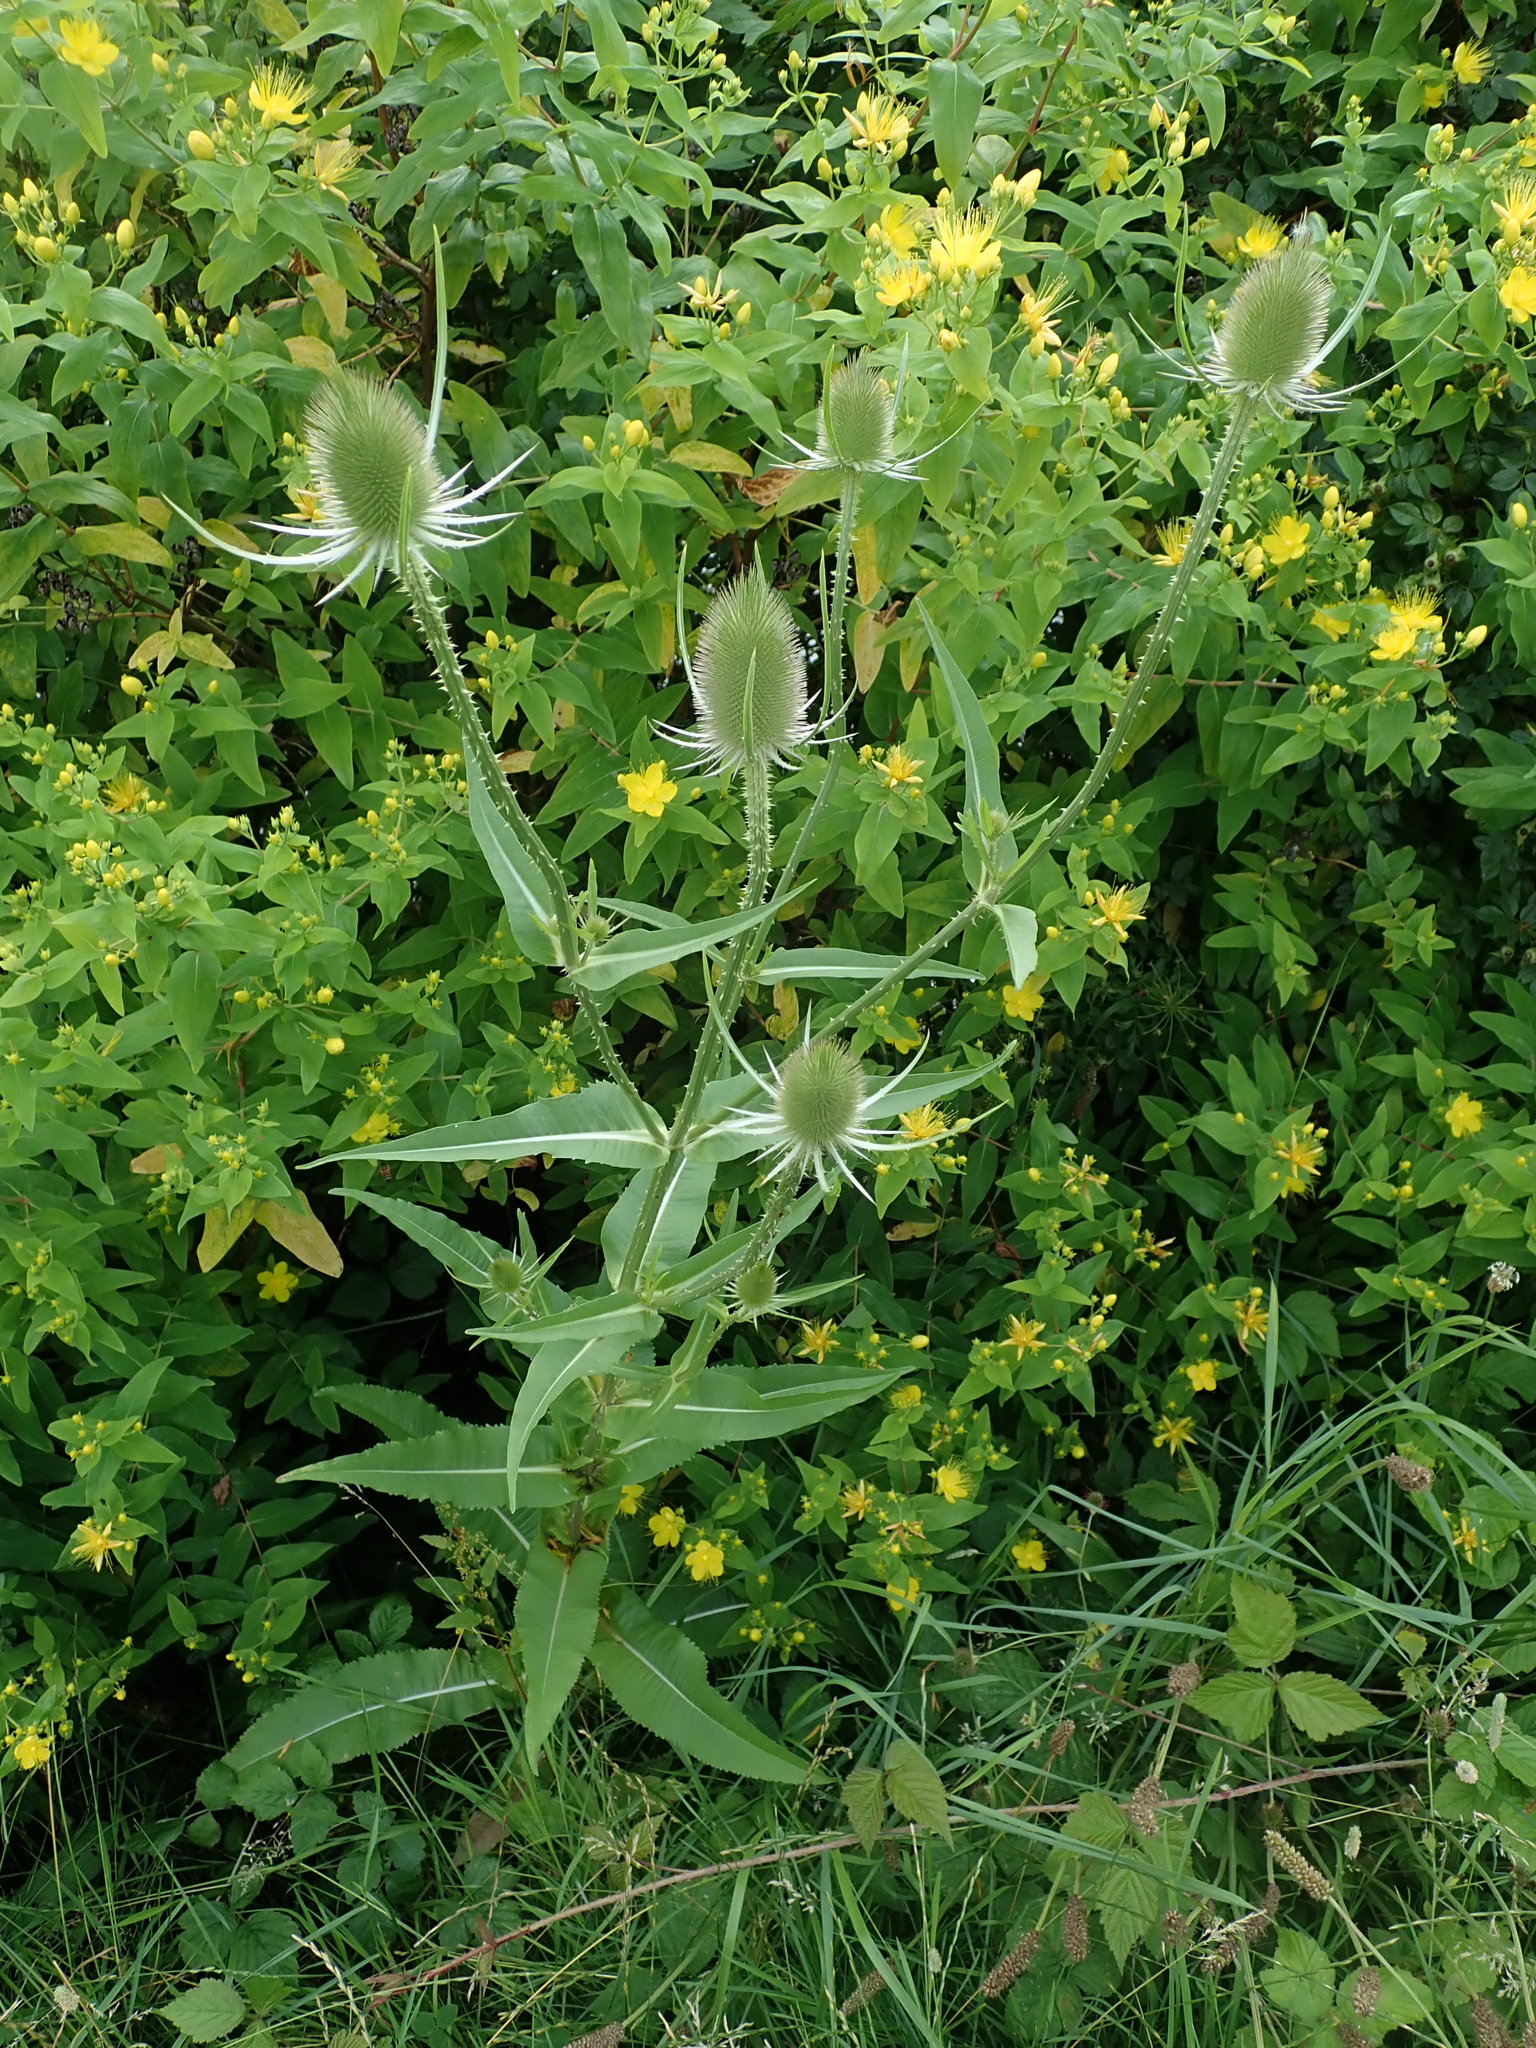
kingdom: Plantae
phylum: Tracheophyta
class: Magnoliopsida
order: Dipsacales
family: Caprifoliaceae
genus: Dipsacus
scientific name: Dipsacus fullonum
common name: Teasel
